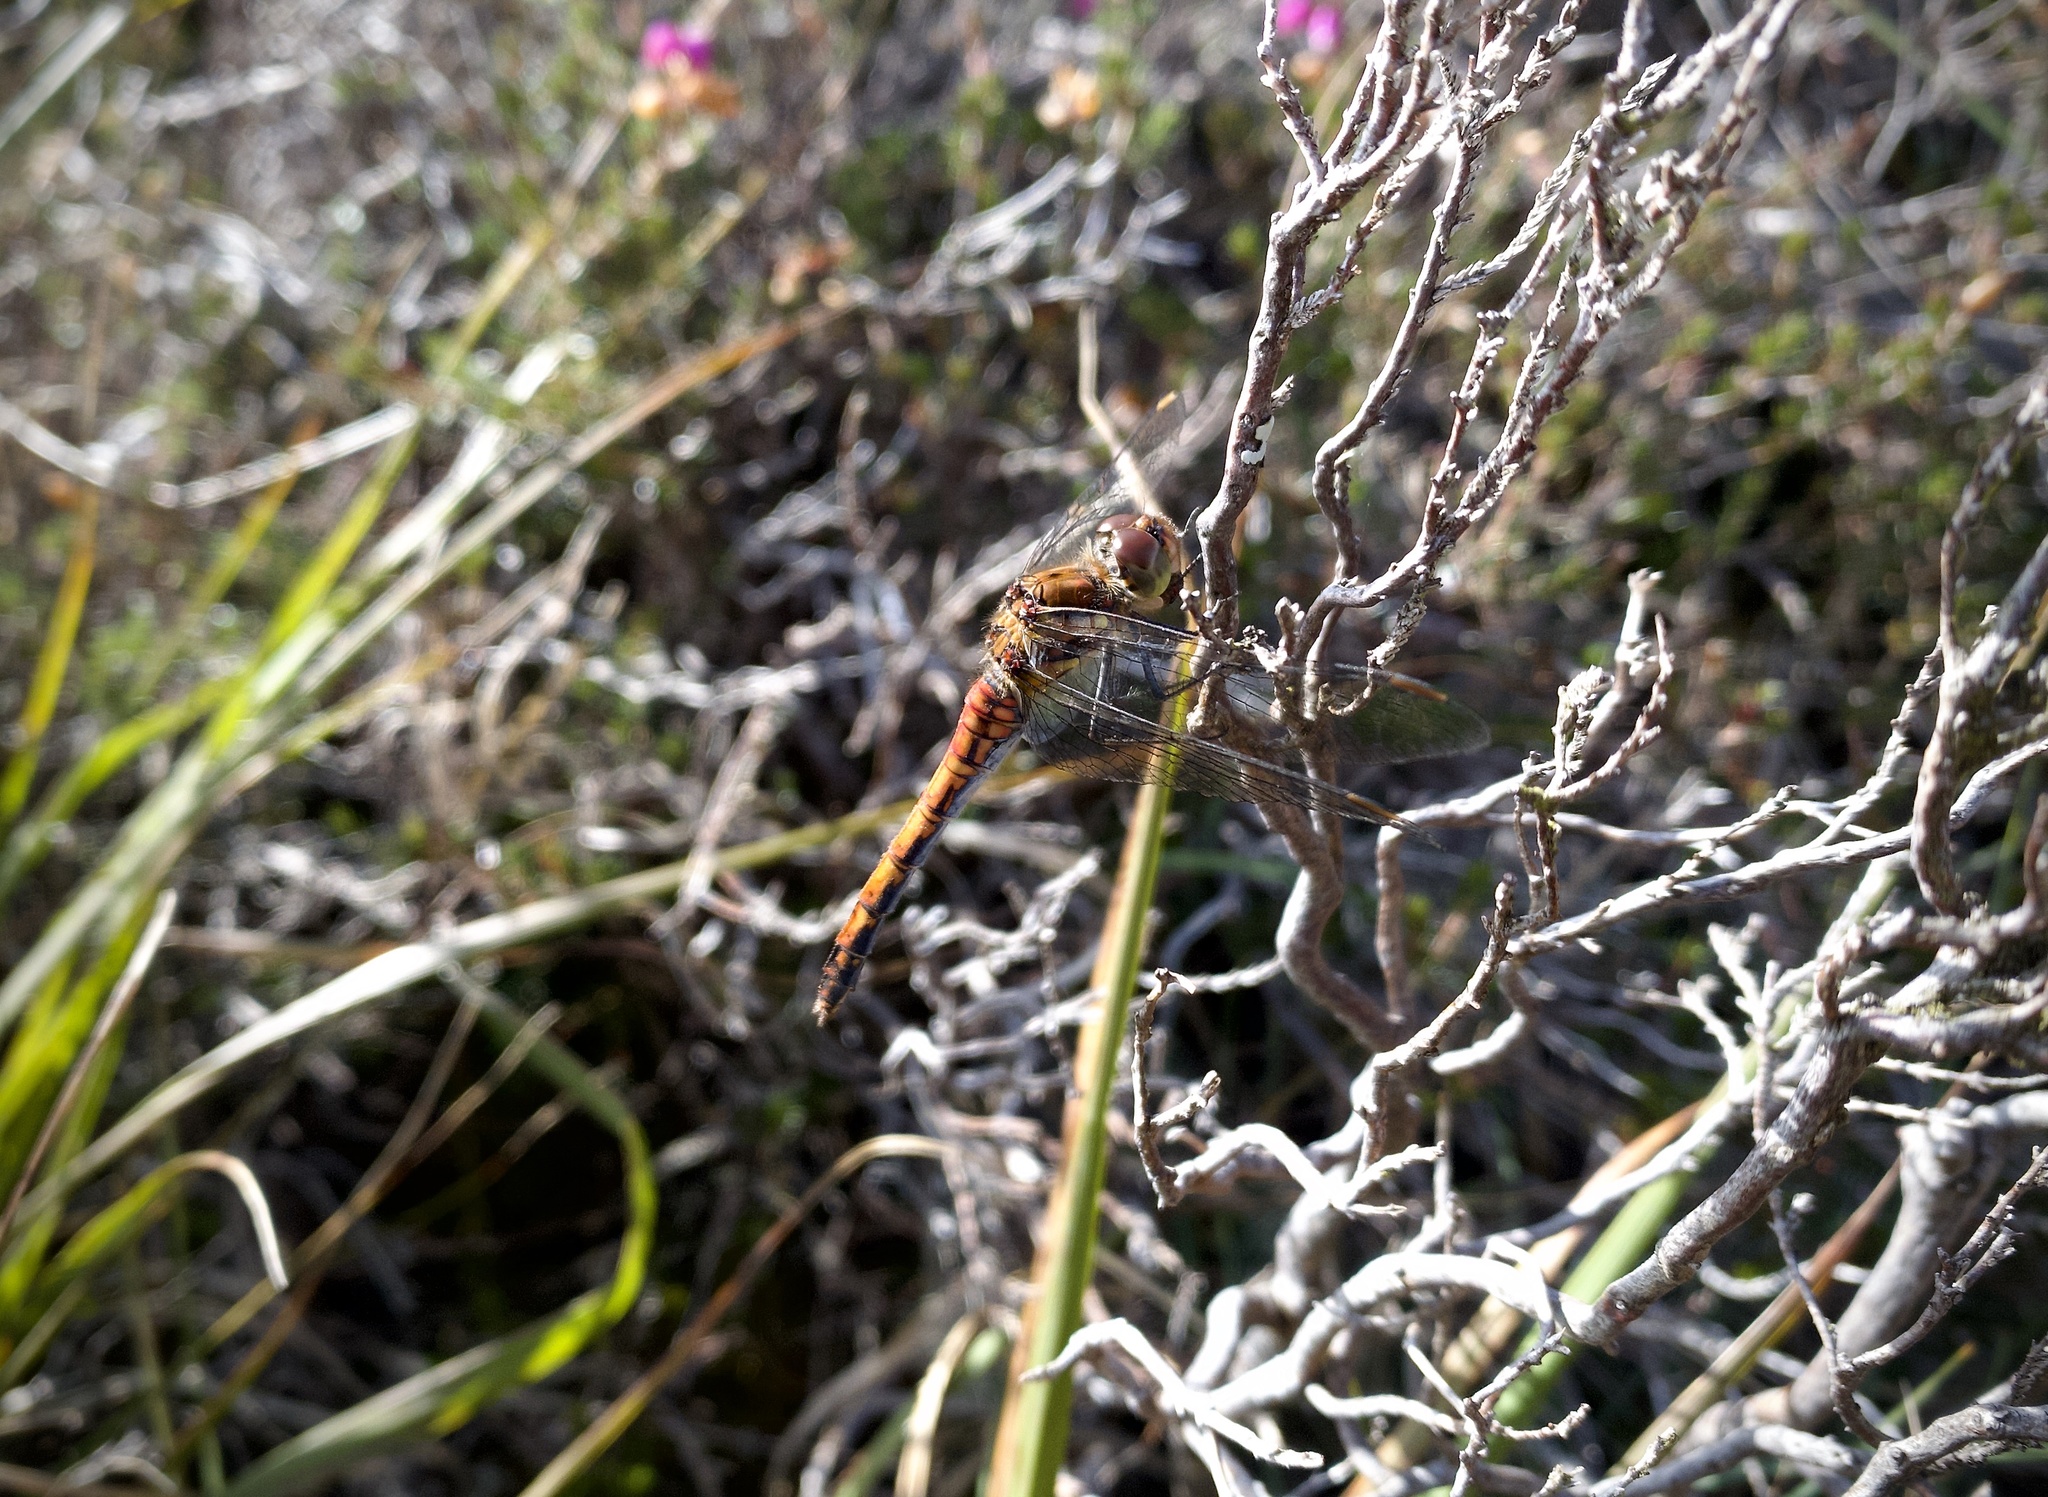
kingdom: Animalia
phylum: Arthropoda
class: Insecta
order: Odonata
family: Libellulidae
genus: Sympetrum
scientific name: Sympetrum striolatum
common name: Common darter
